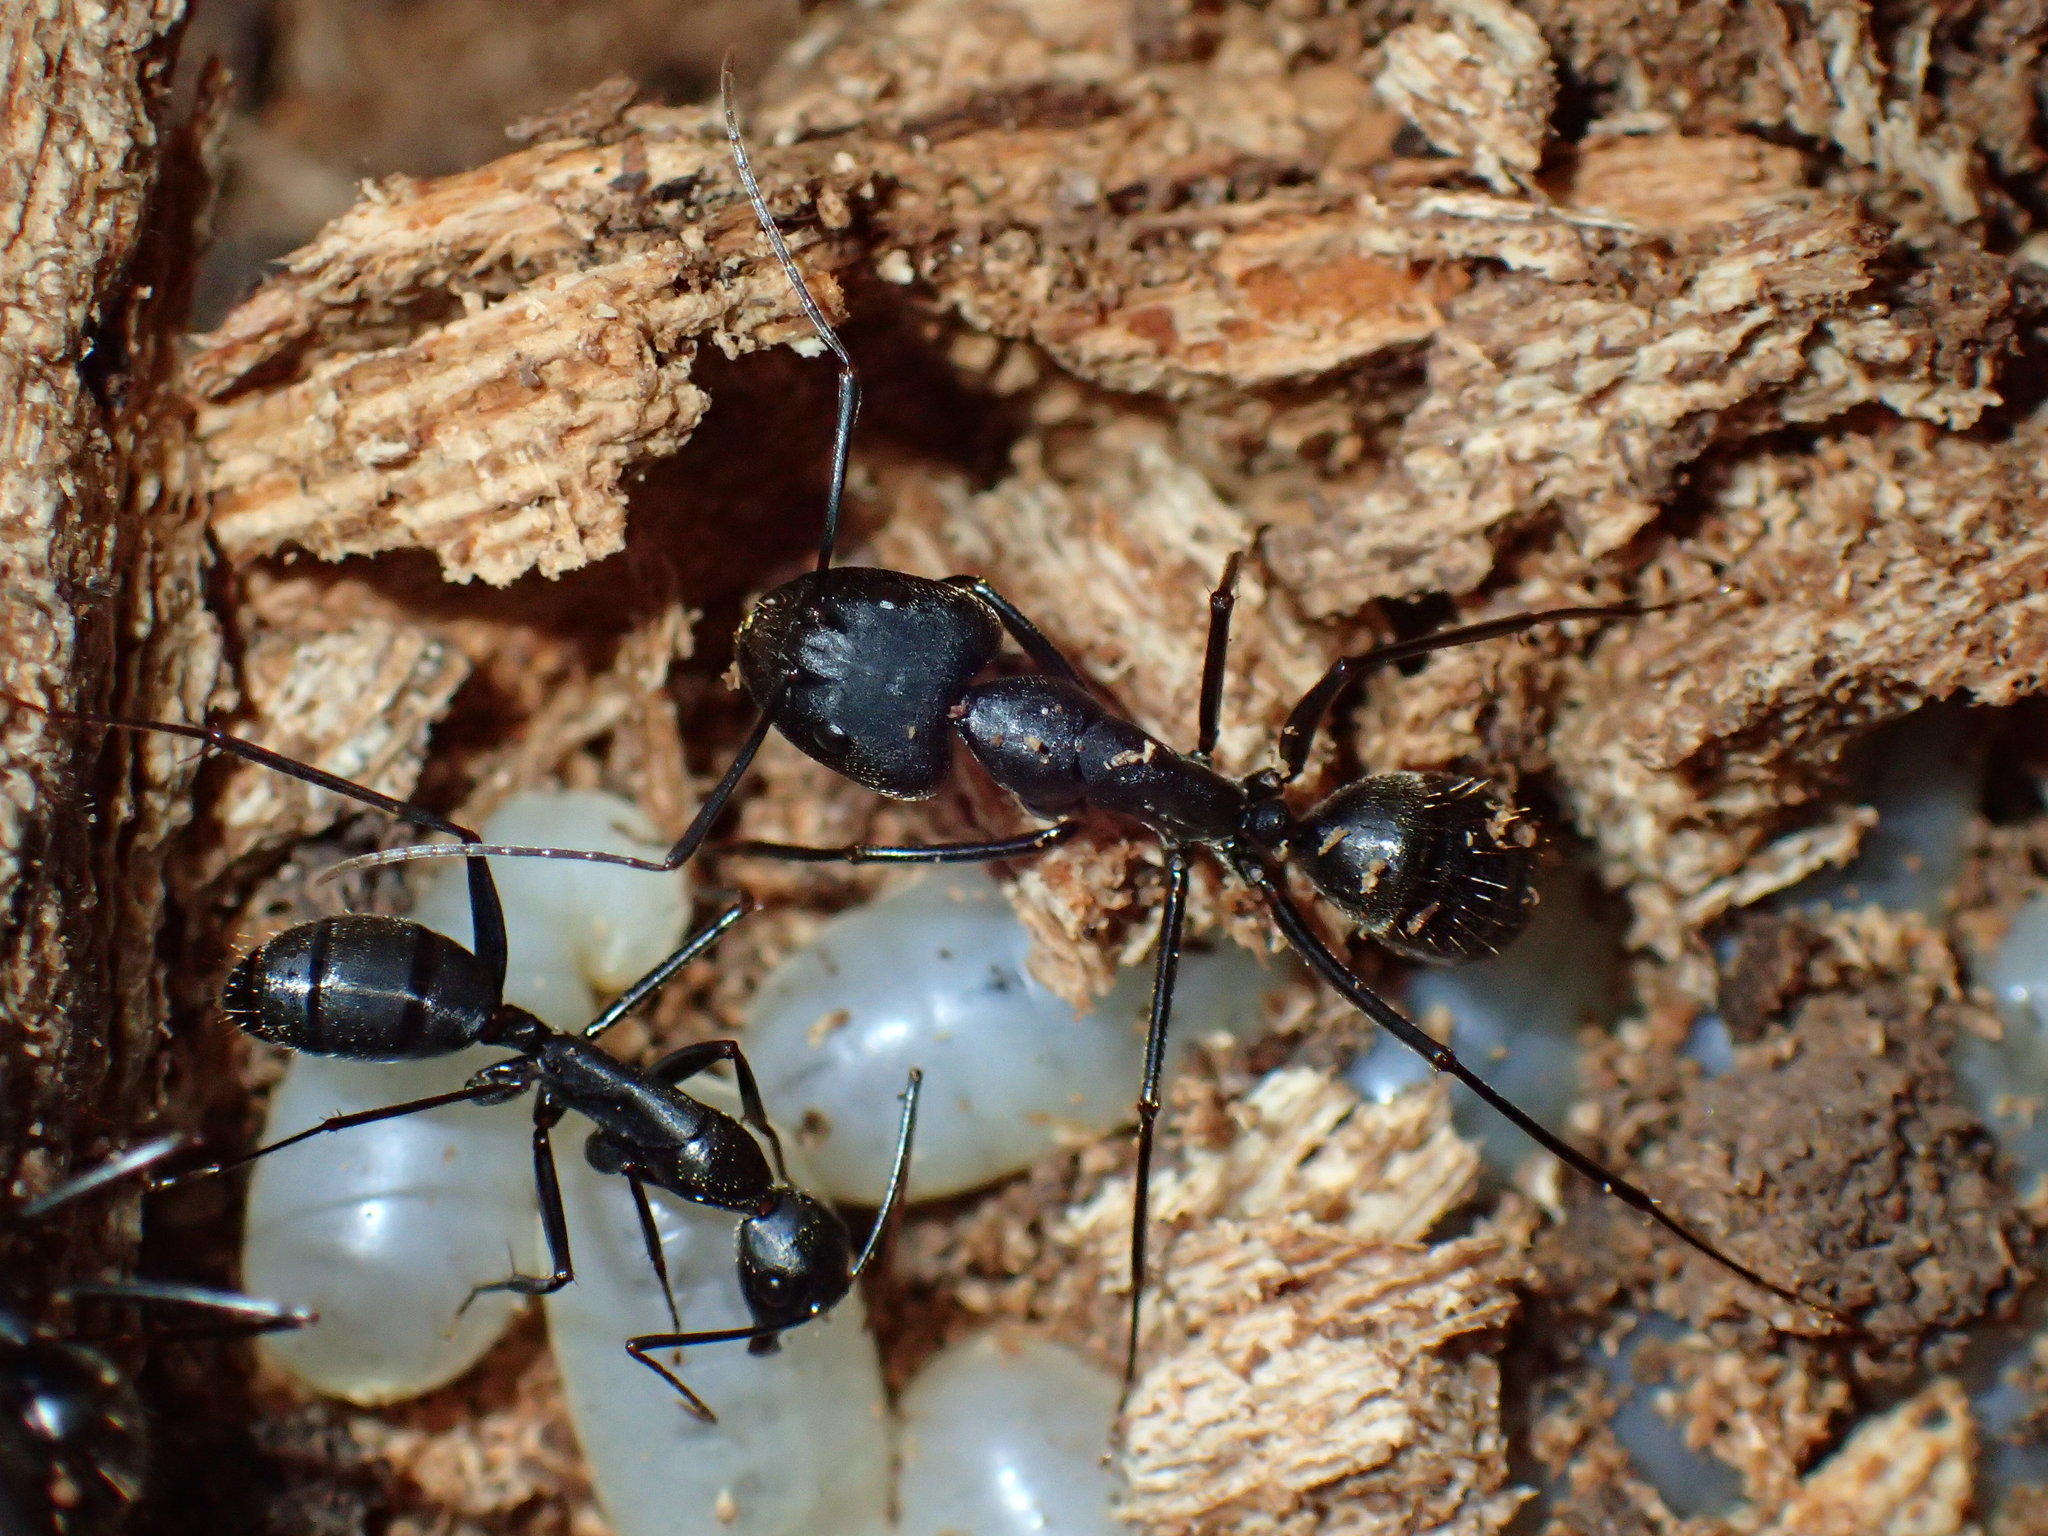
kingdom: Animalia
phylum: Arthropoda
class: Insecta
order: Hymenoptera
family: Formicidae
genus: Camponotus
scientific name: Camponotus natalensis
